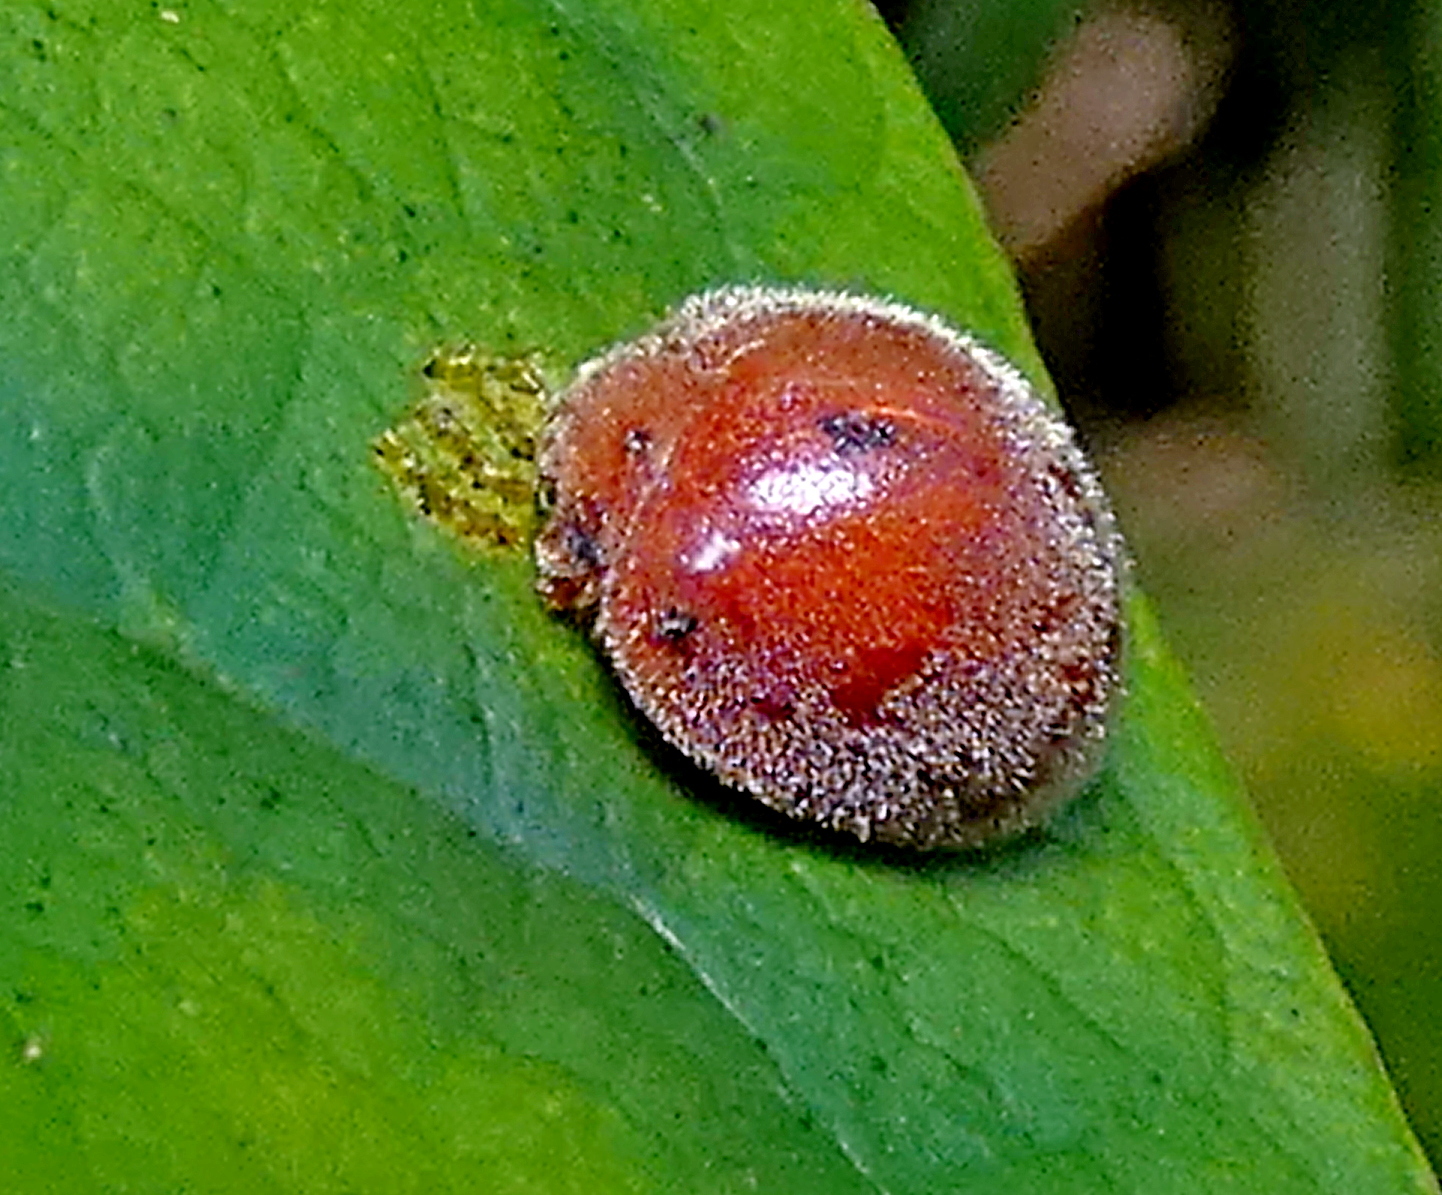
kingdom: Animalia
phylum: Arthropoda
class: Insecta
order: Coleoptera
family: Coccinellidae
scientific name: Coccinellidae
